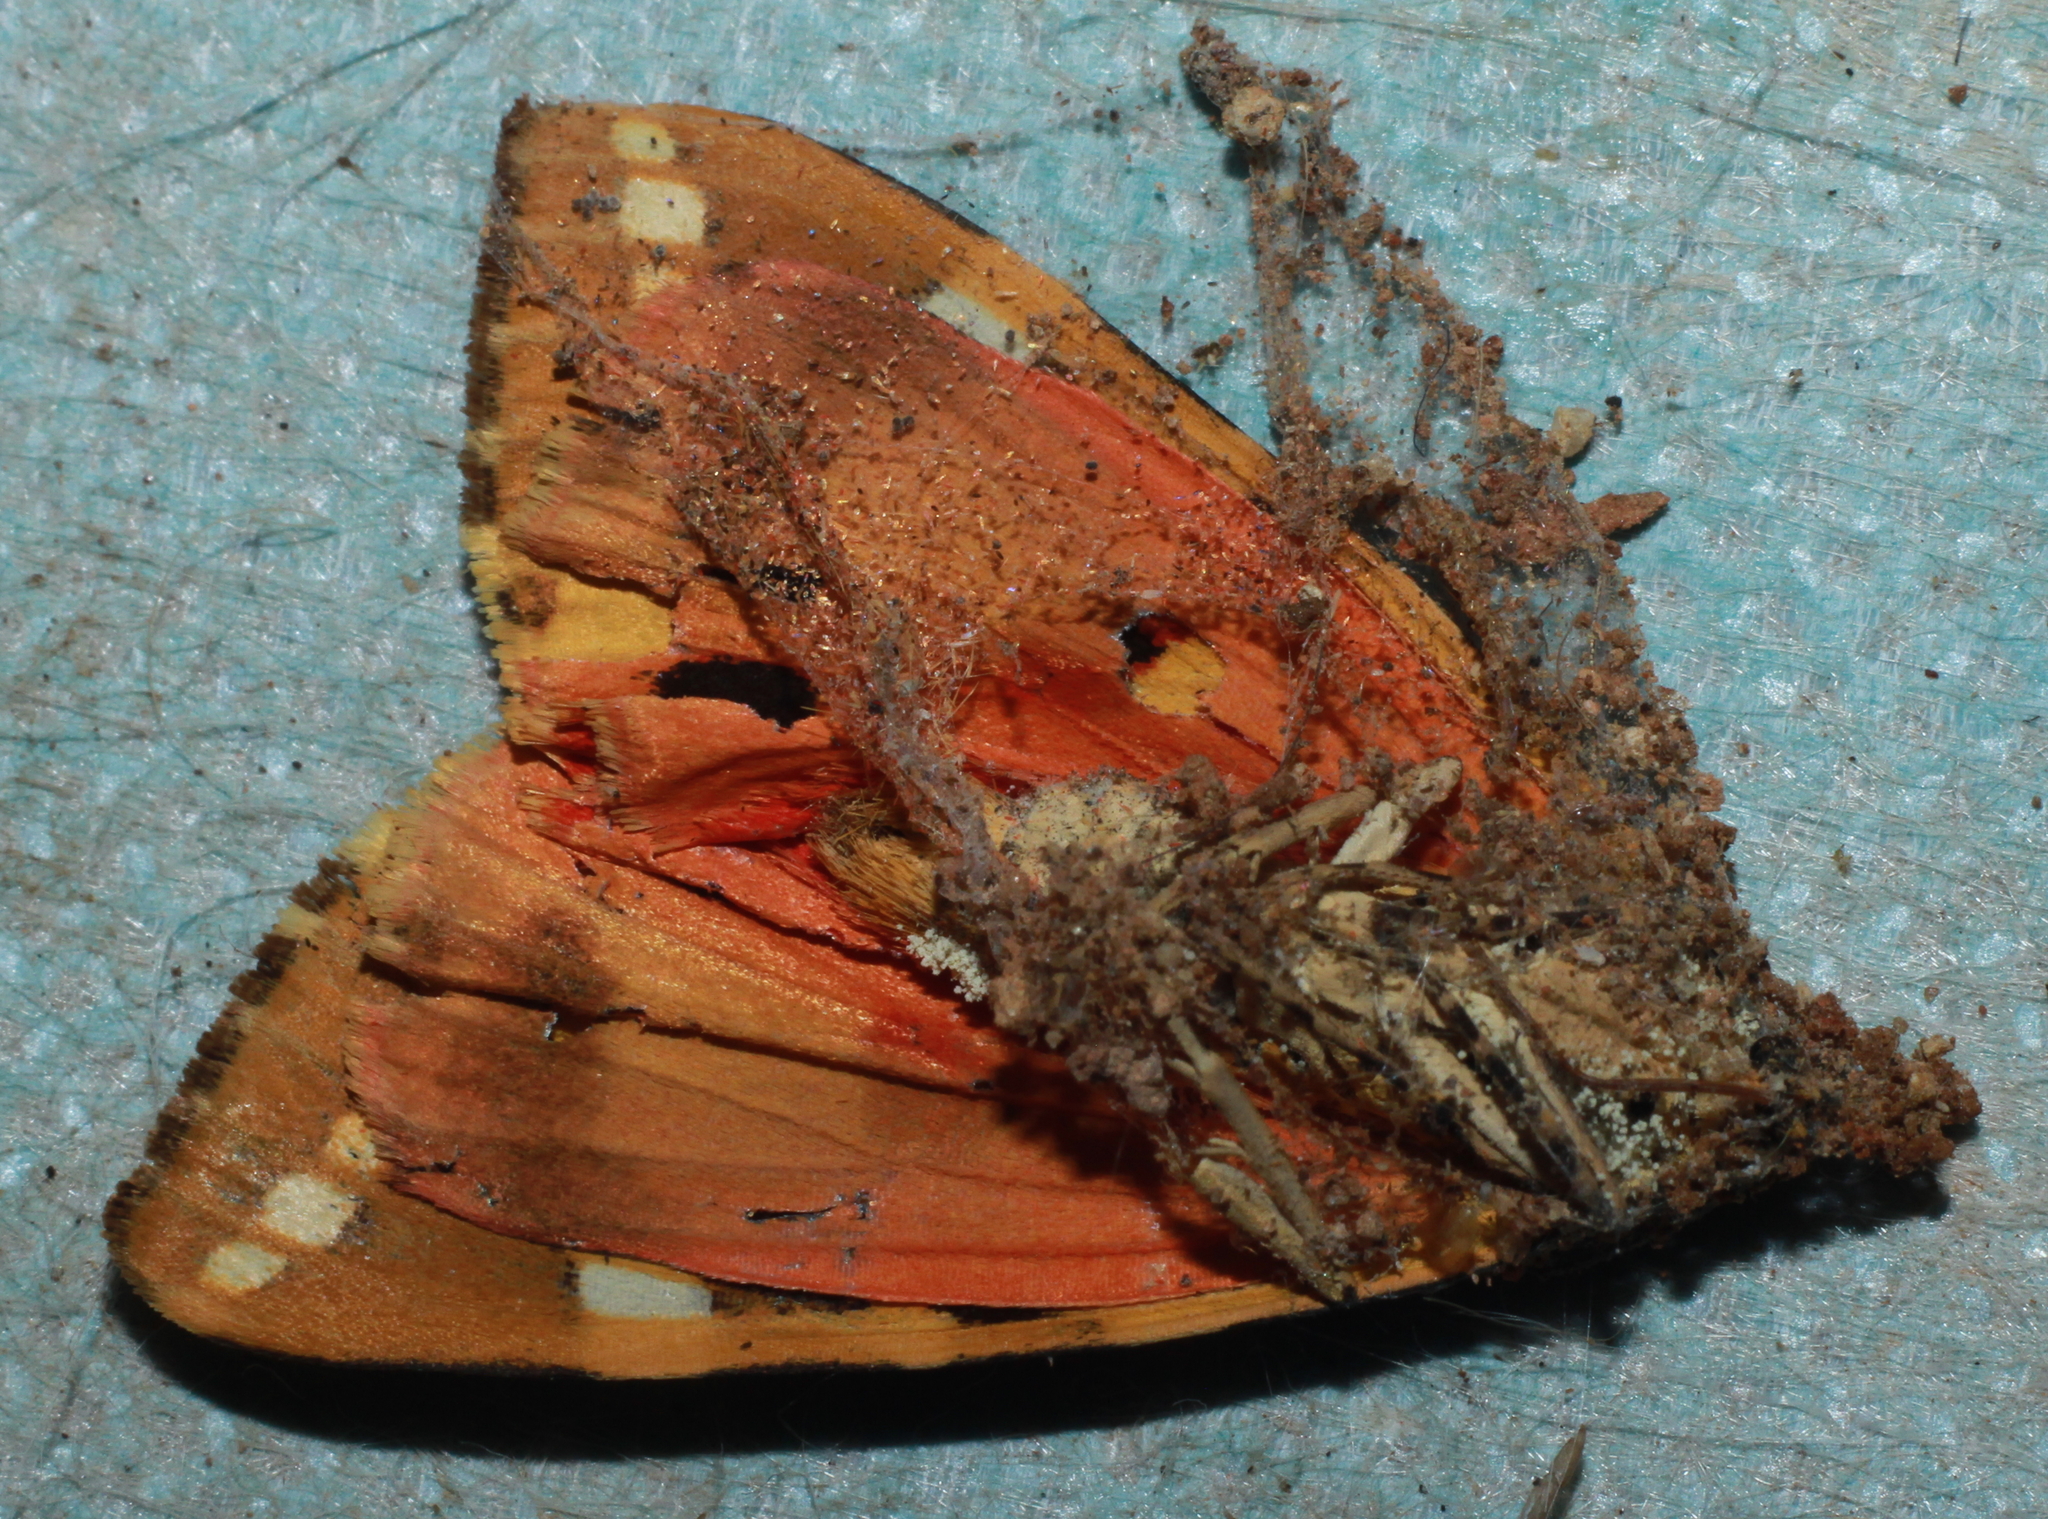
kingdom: Animalia
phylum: Arthropoda
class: Insecta
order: Lepidoptera
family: Erebidae
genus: Euplagia
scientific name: Euplagia quadripunctaria
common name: Jersey tiger
